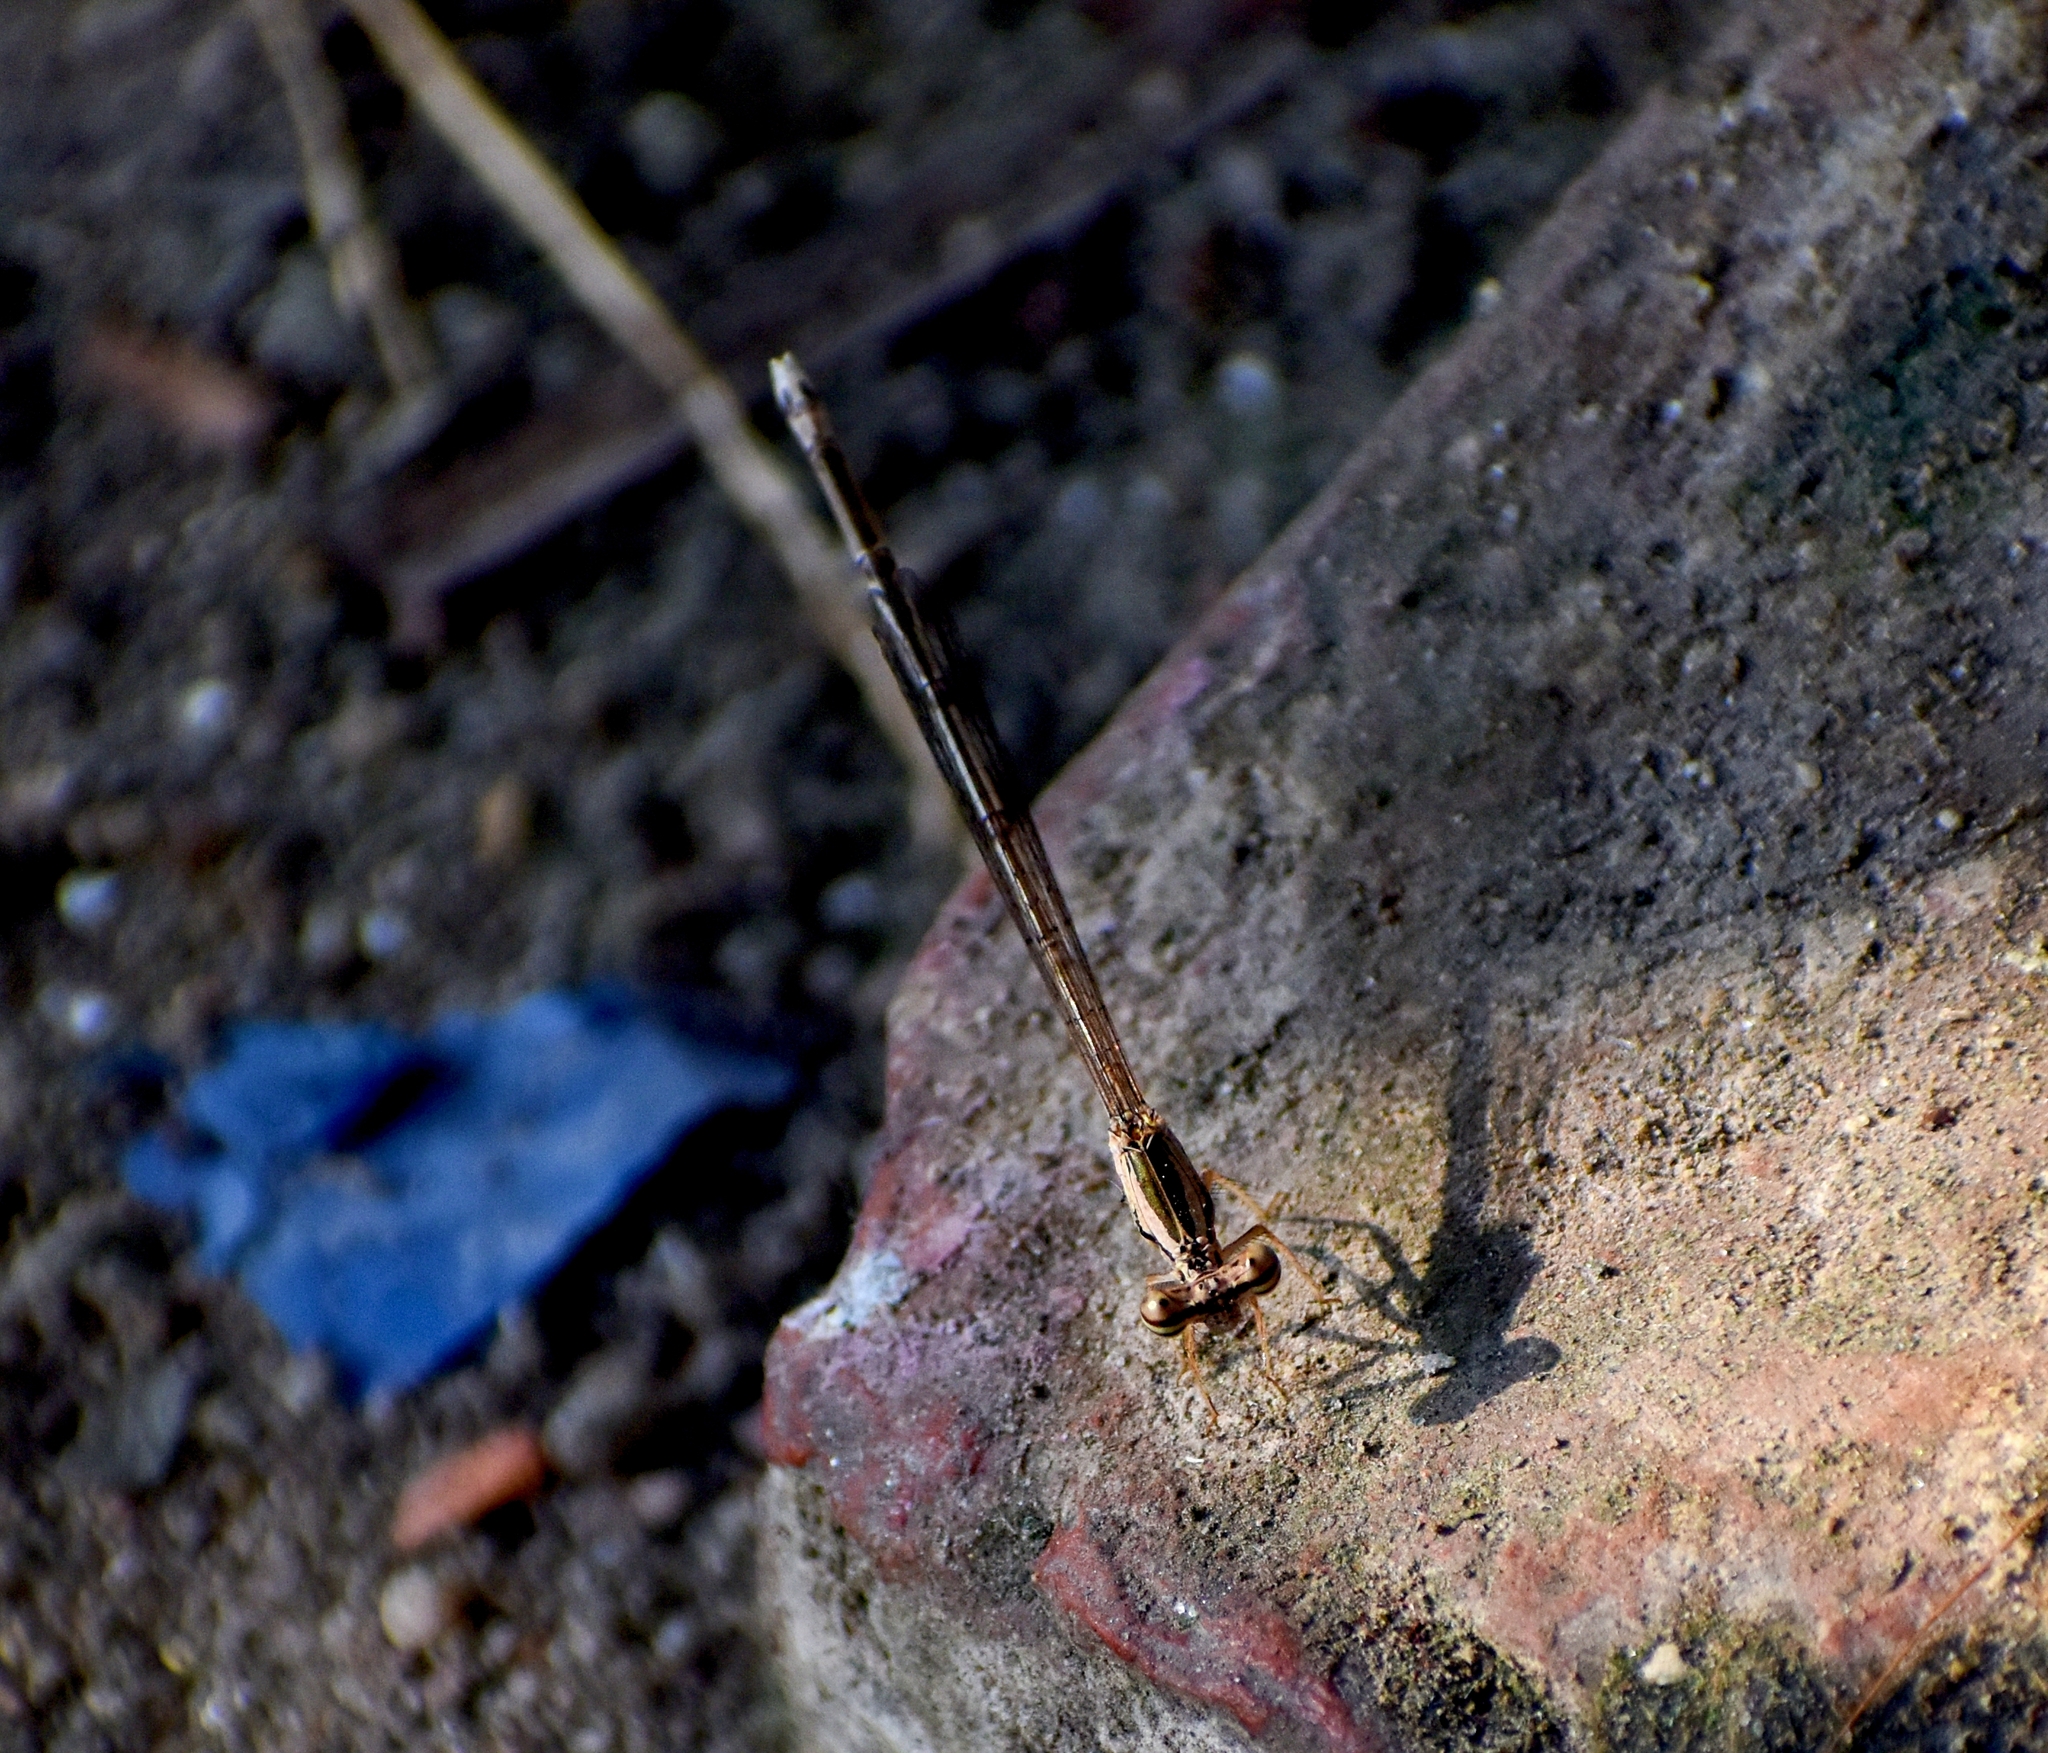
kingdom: Animalia
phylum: Arthropoda
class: Insecta
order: Odonata
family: Platycnemididae
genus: Copera
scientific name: Copera marginipes
